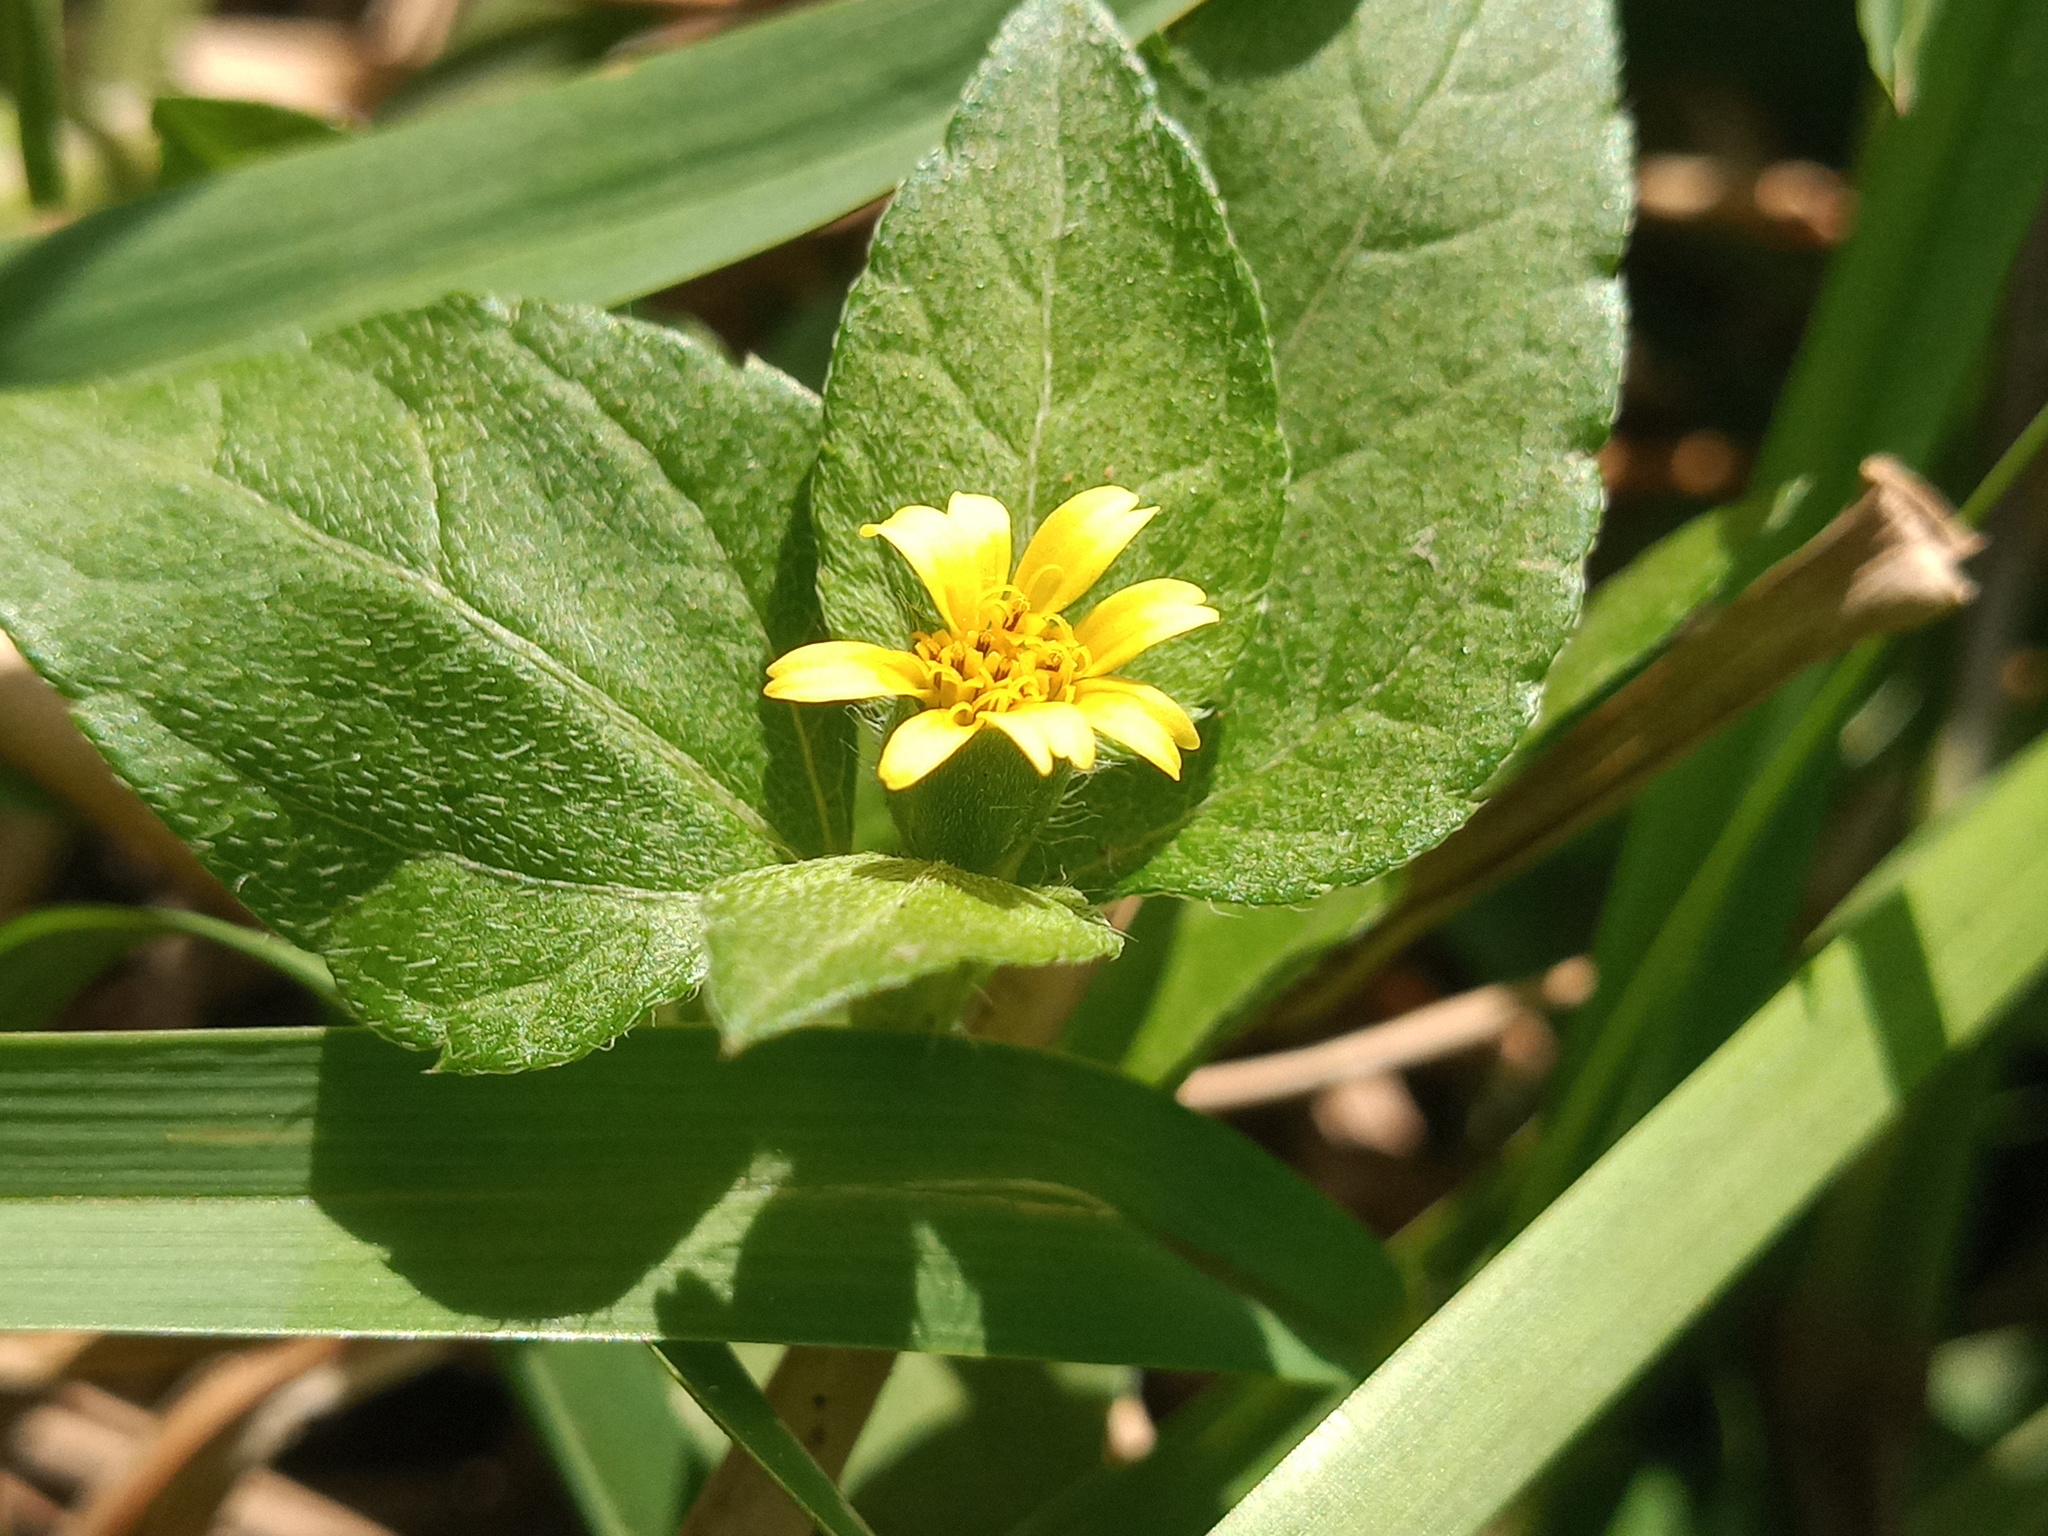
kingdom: Plantae
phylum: Tracheophyta
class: Magnoliopsida
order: Asterales
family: Asteraceae
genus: Calyptocarpus
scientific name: Calyptocarpus vialis
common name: Straggler daisy
